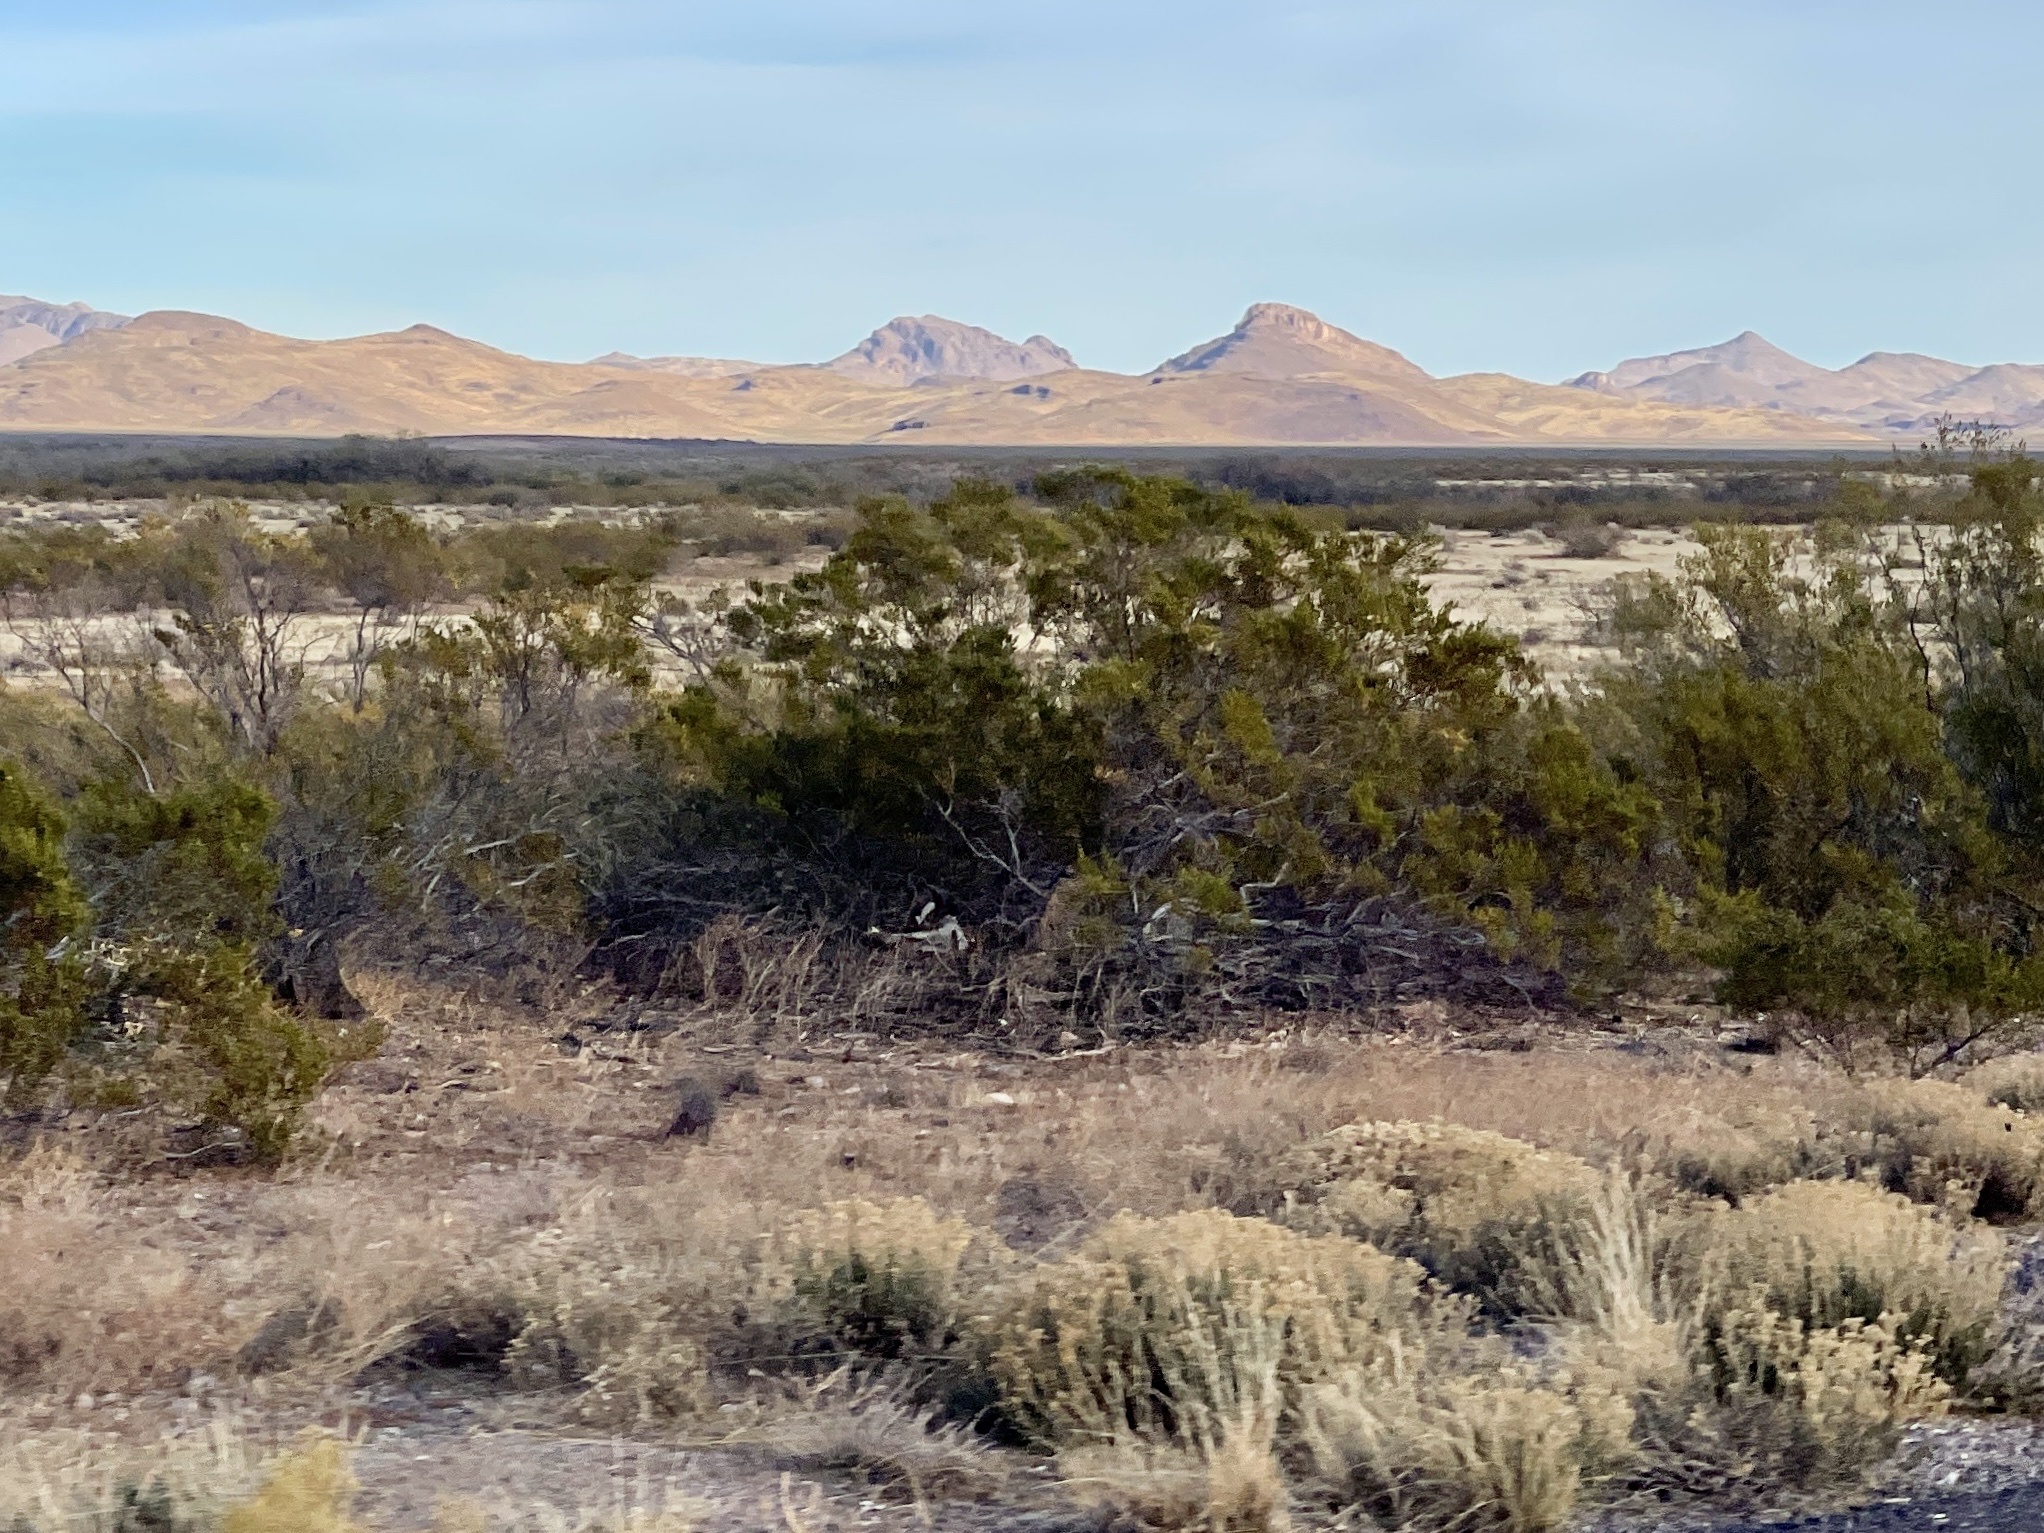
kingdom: Plantae
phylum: Tracheophyta
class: Magnoliopsida
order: Zygophyllales
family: Zygophyllaceae
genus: Larrea
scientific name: Larrea tridentata
